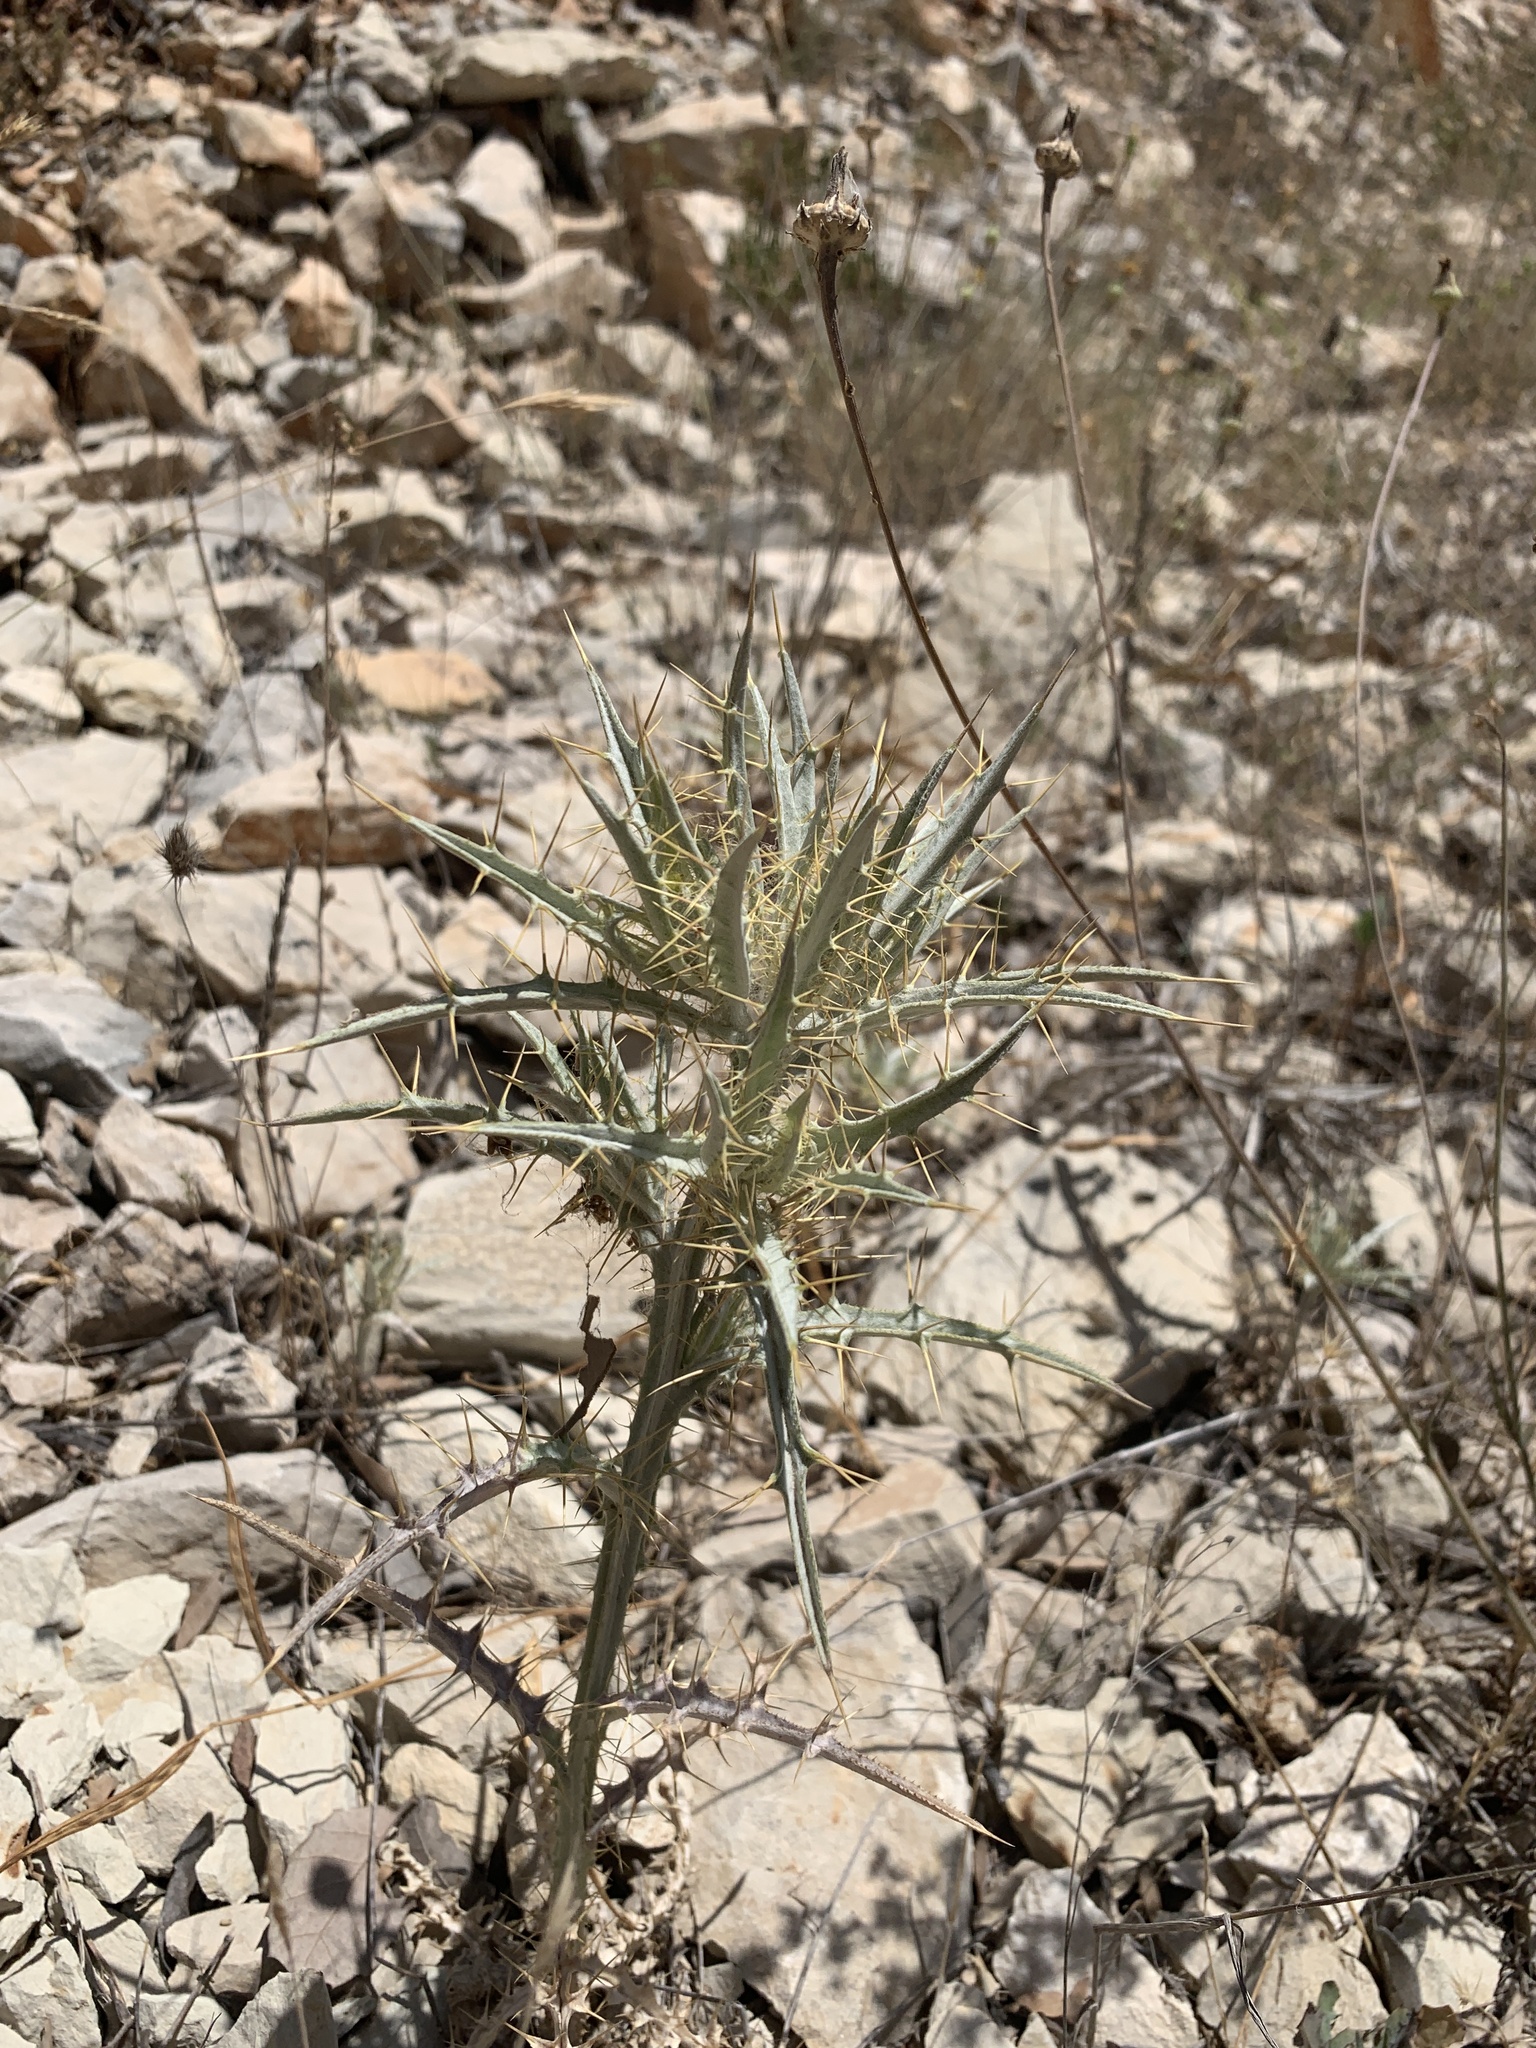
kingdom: Plantae
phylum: Tracheophyta
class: Magnoliopsida
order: Asterales
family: Asteraceae
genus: Picnomon
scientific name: Picnomon acarna
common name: Soldier thistle
